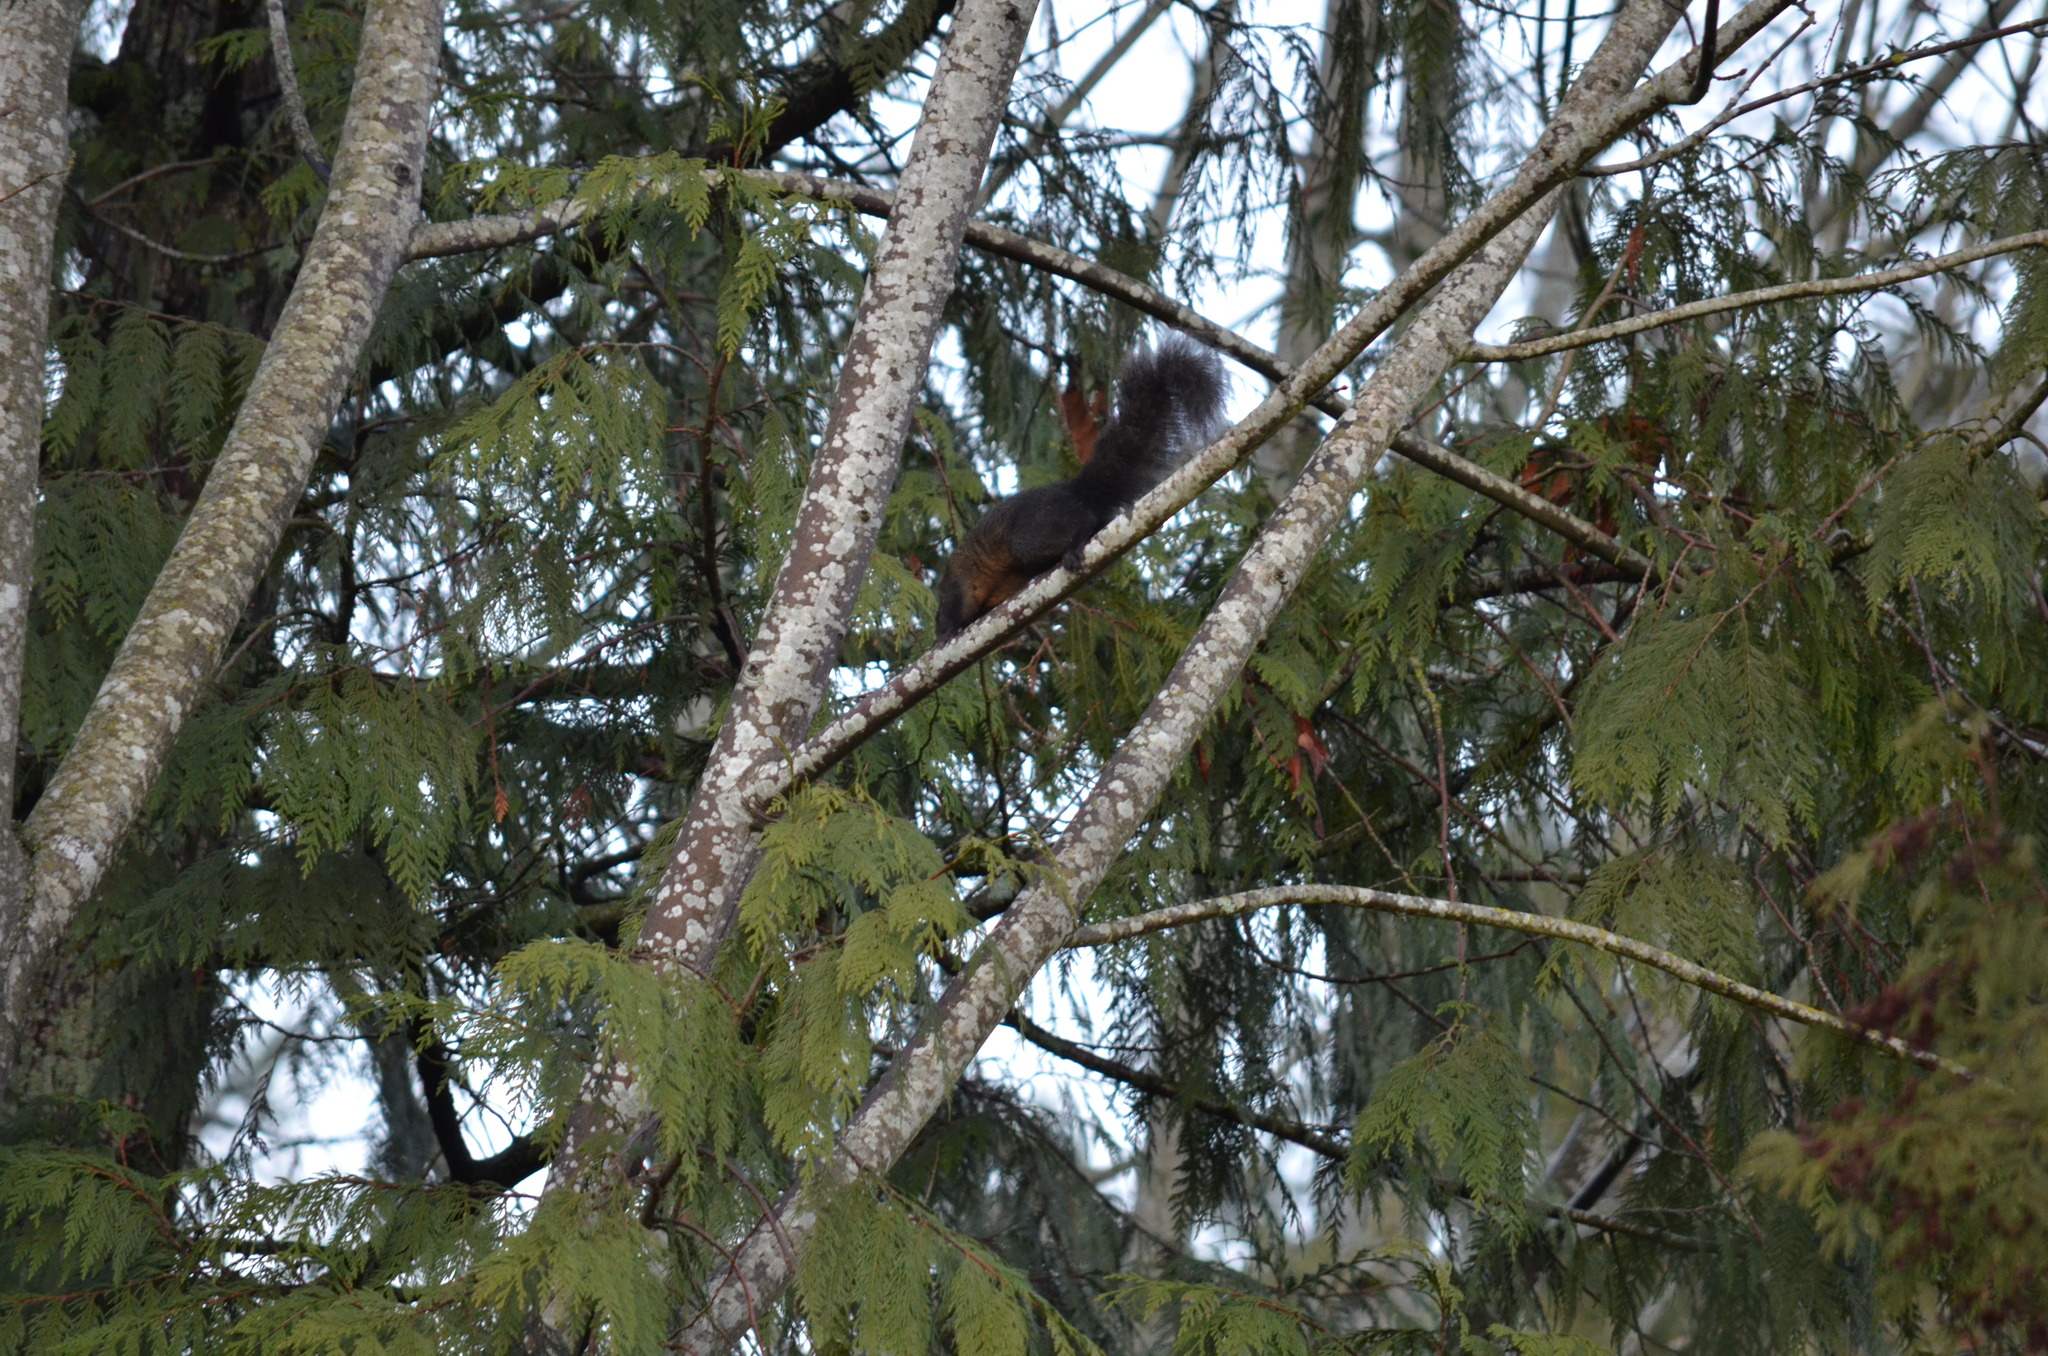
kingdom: Animalia
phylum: Chordata
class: Mammalia
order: Rodentia
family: Sciuridae
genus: Sciurus
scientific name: Sciurus carolinensis
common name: Eastern gray squirrel
